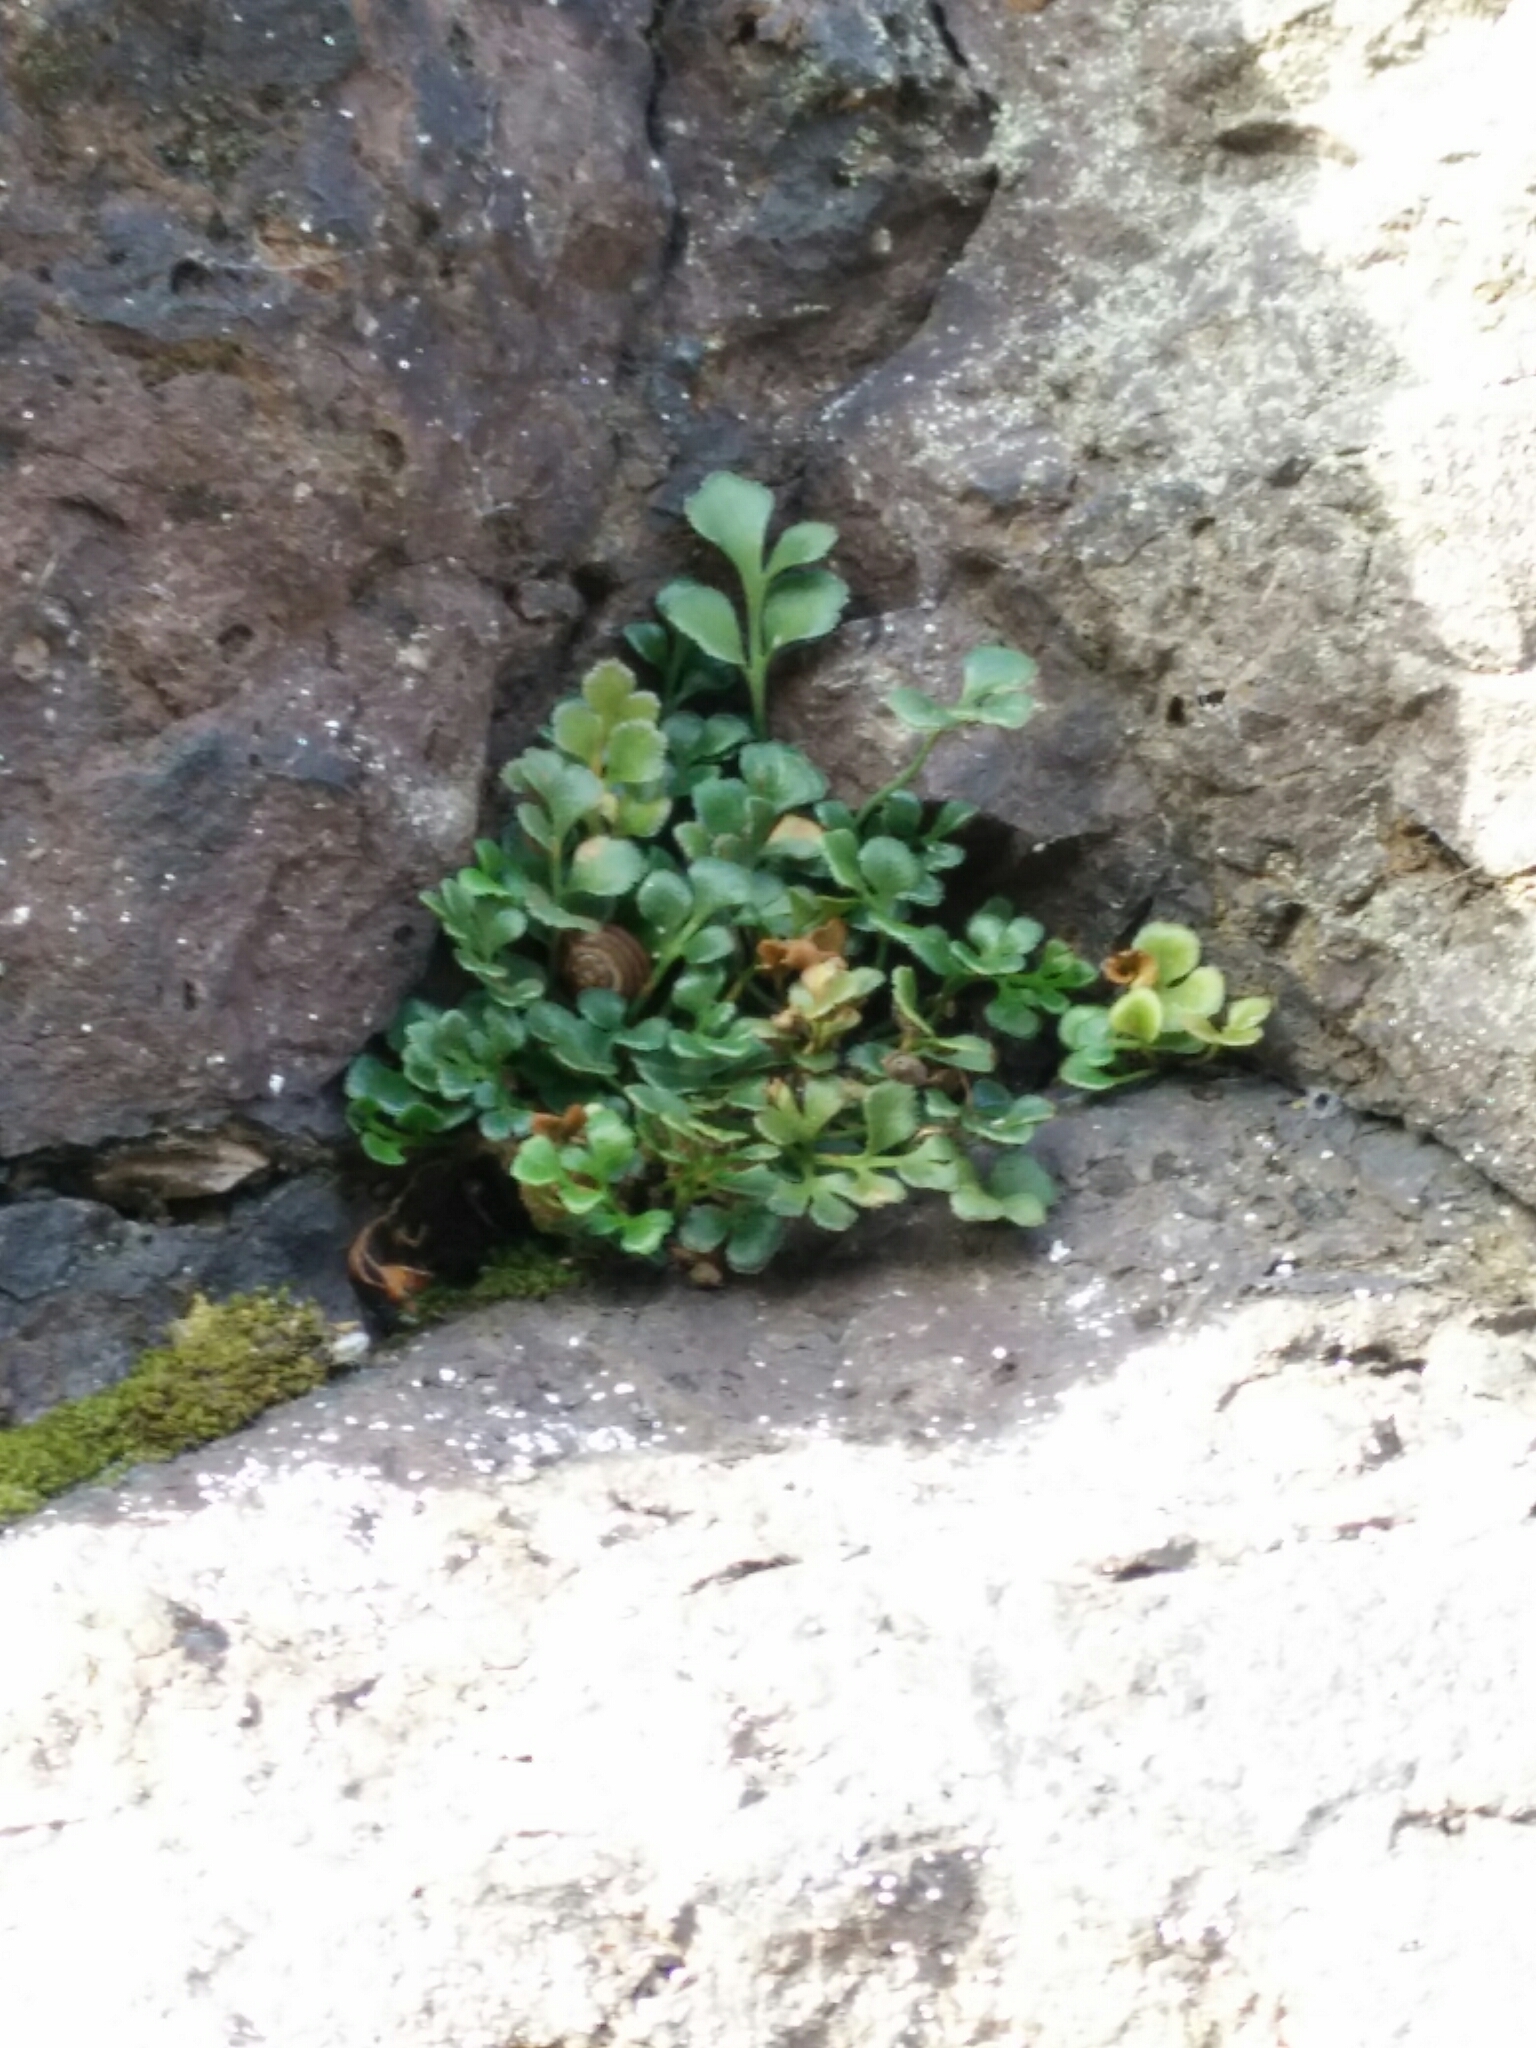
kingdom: Plantae
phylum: Tracheophyta
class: Polypodiopsida
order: Polypodiales
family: Aspleniaceae
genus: Asplenium
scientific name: Asplenium ruta-muraria
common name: Wall-rue
